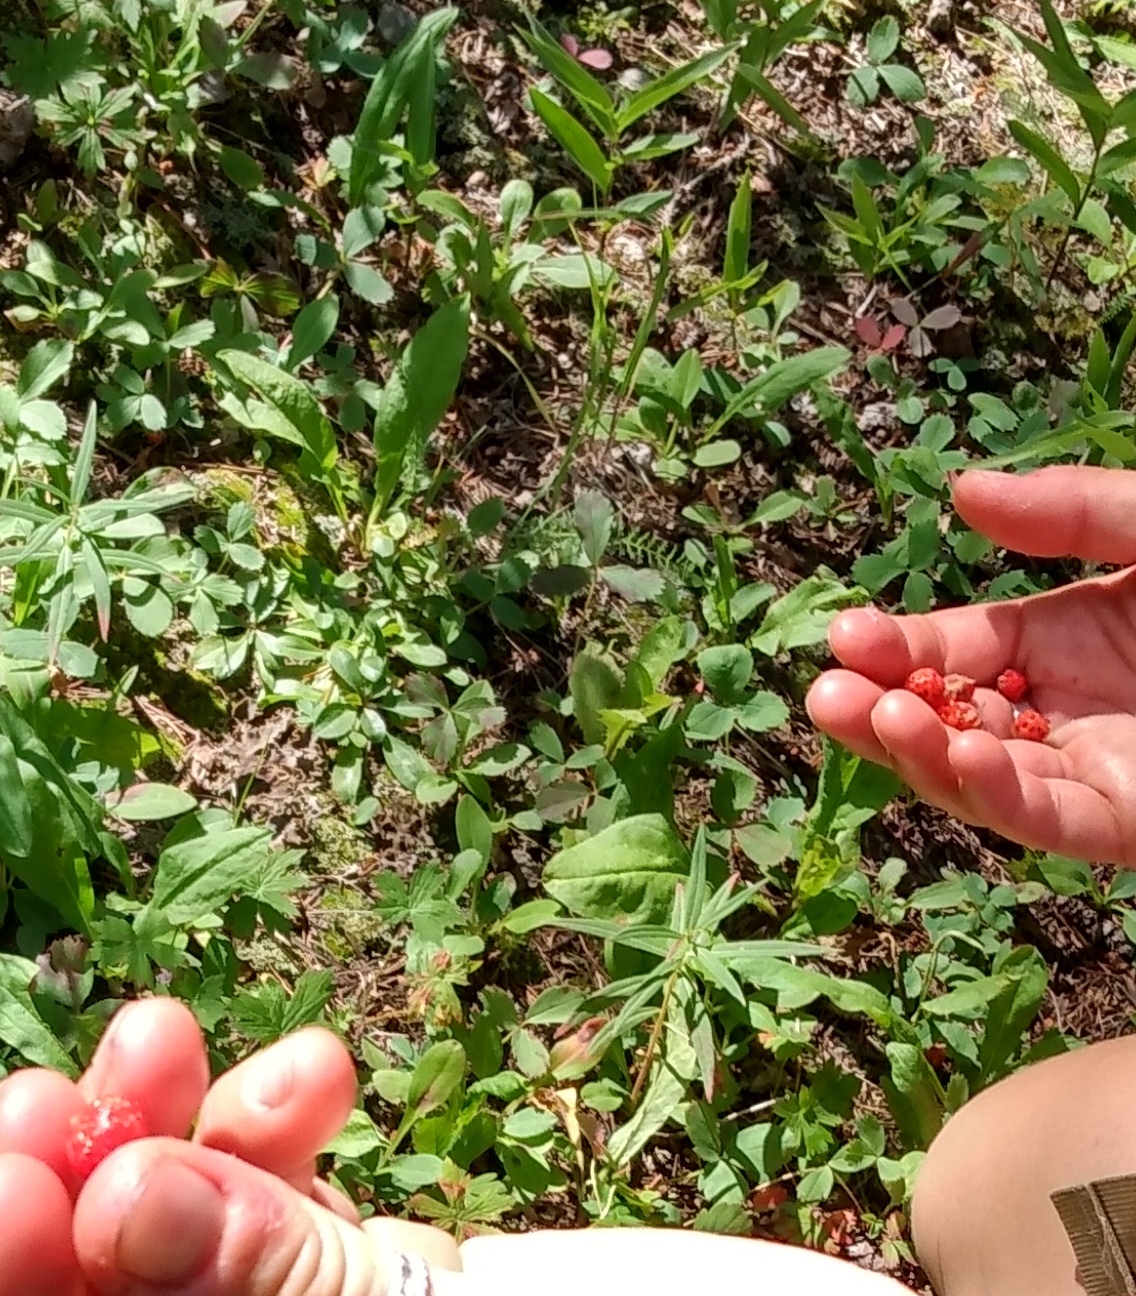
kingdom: Plantae
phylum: Tracheophyta
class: Magnoliopsida
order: Rosales
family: Rosaceae
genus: Fragaria
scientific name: Fragaria virginiana
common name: Thickleaved wild strawberry
